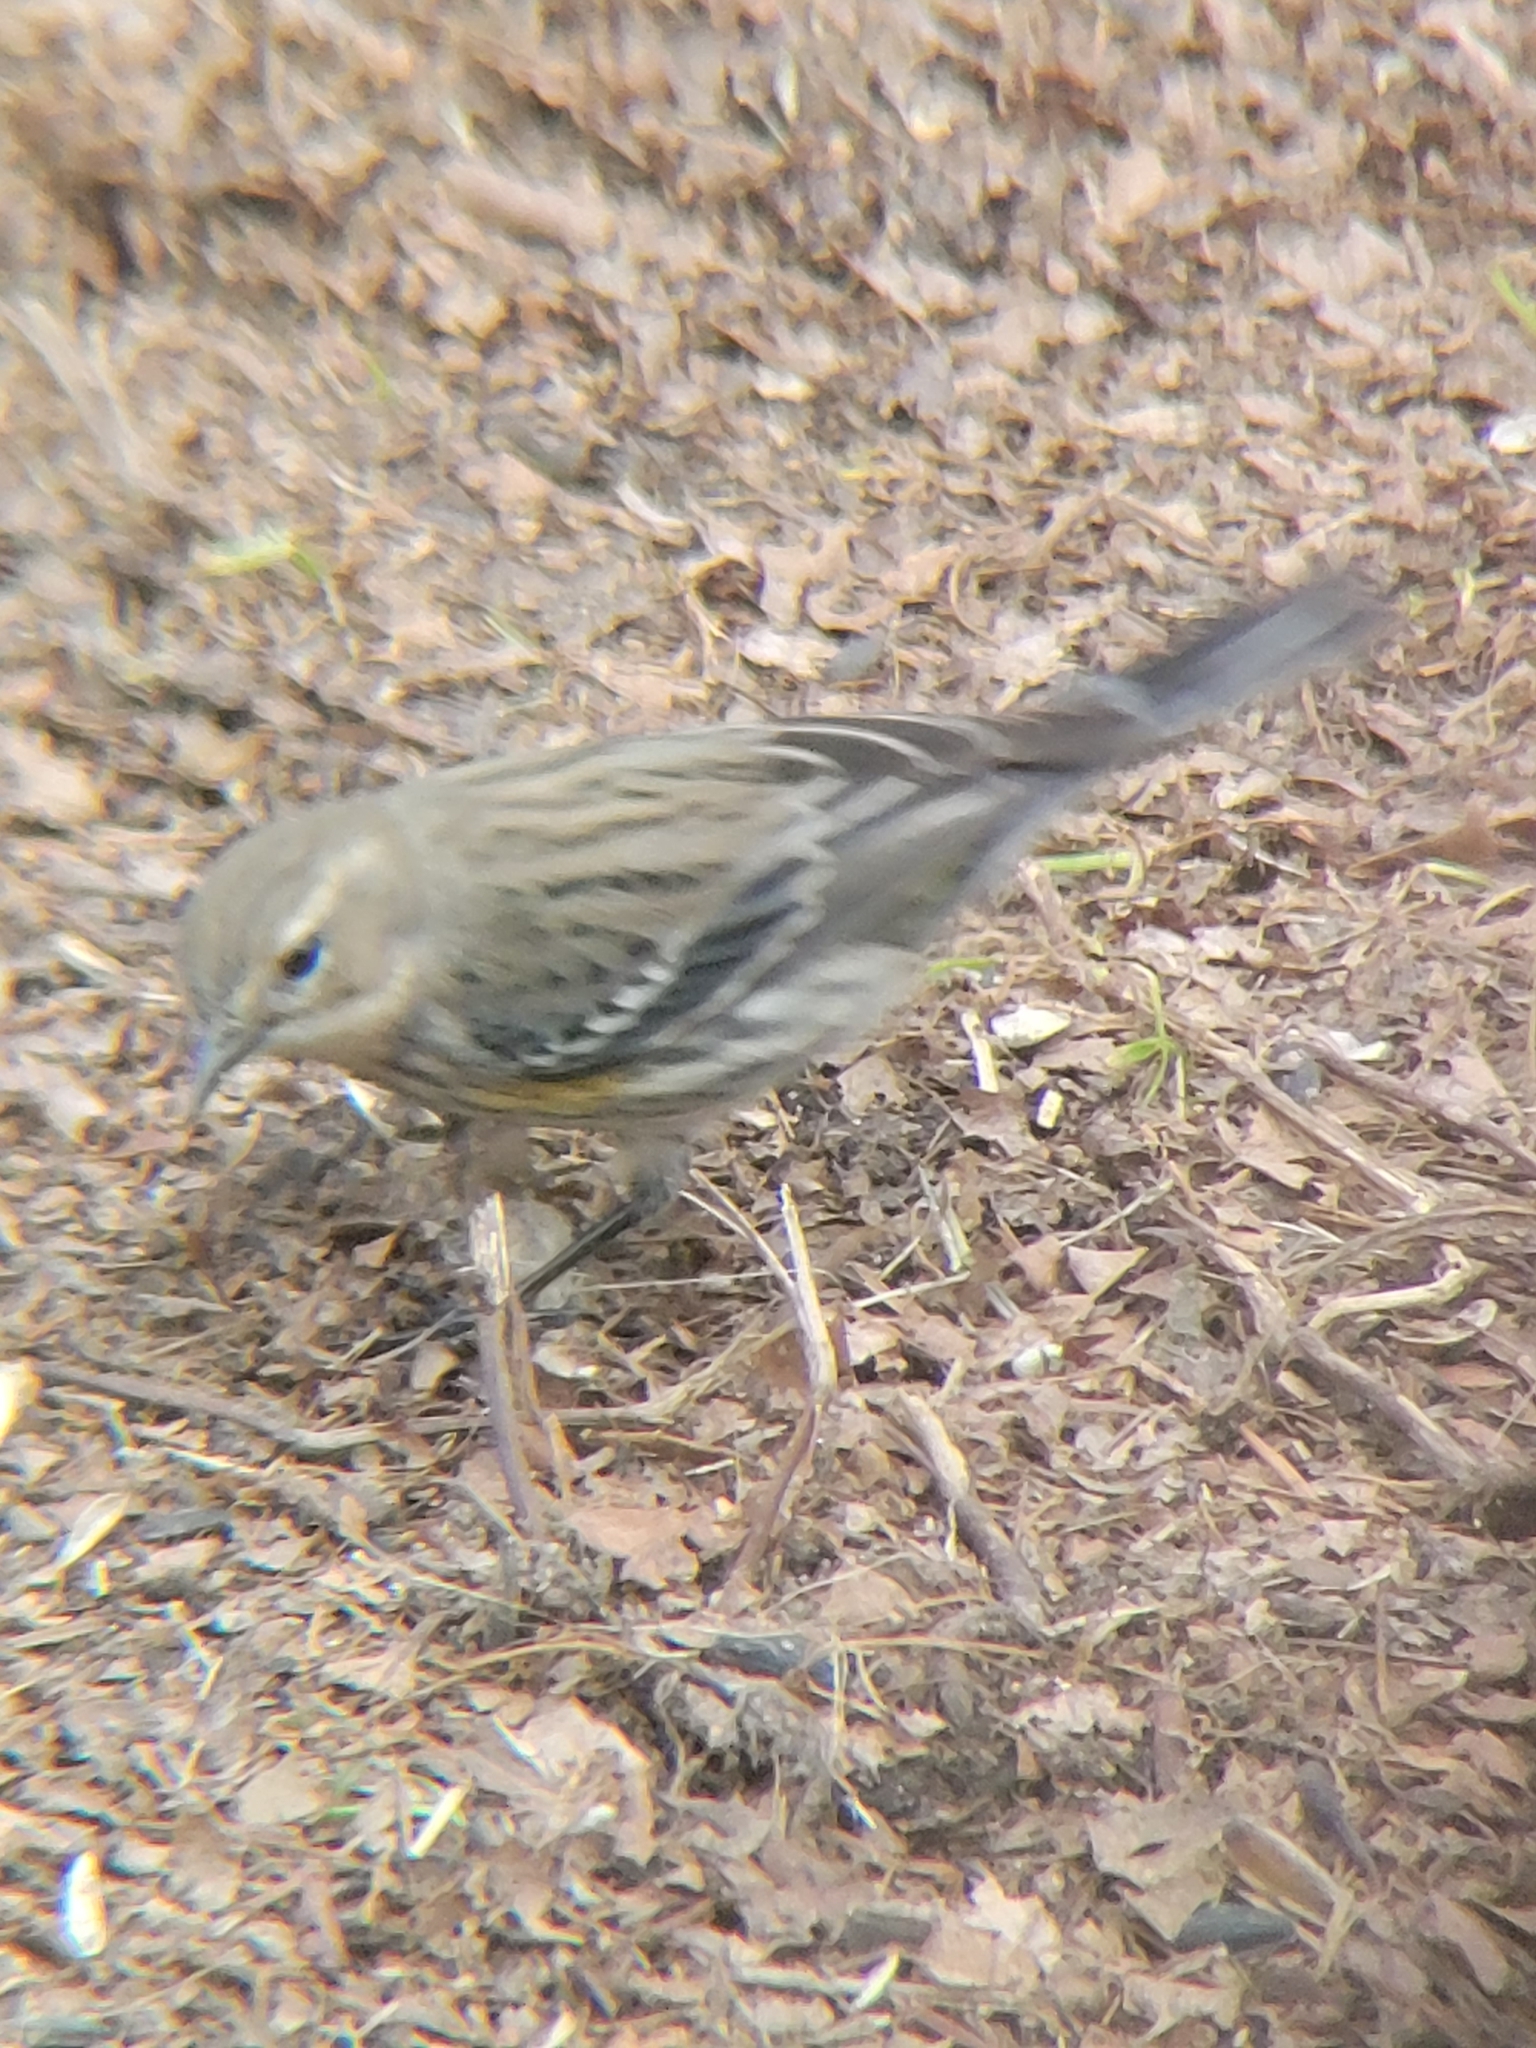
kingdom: Animalia
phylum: Chordata
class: Aves
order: Passeriformes
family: Parulidae
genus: Setophaga
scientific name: Setophaga coronata
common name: Myrtle warbler
